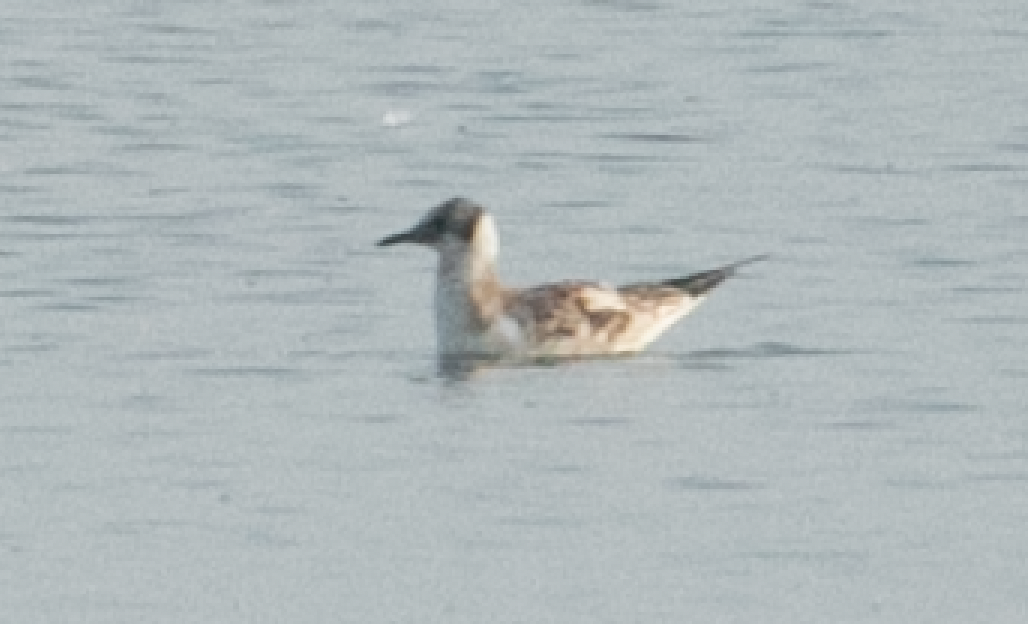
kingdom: Animalia
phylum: Chordata
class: Aves
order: Charadriiformes
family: Laridae
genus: Chroicocephalus
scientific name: Chroicocephalus ridibundus
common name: Black-headed gull
